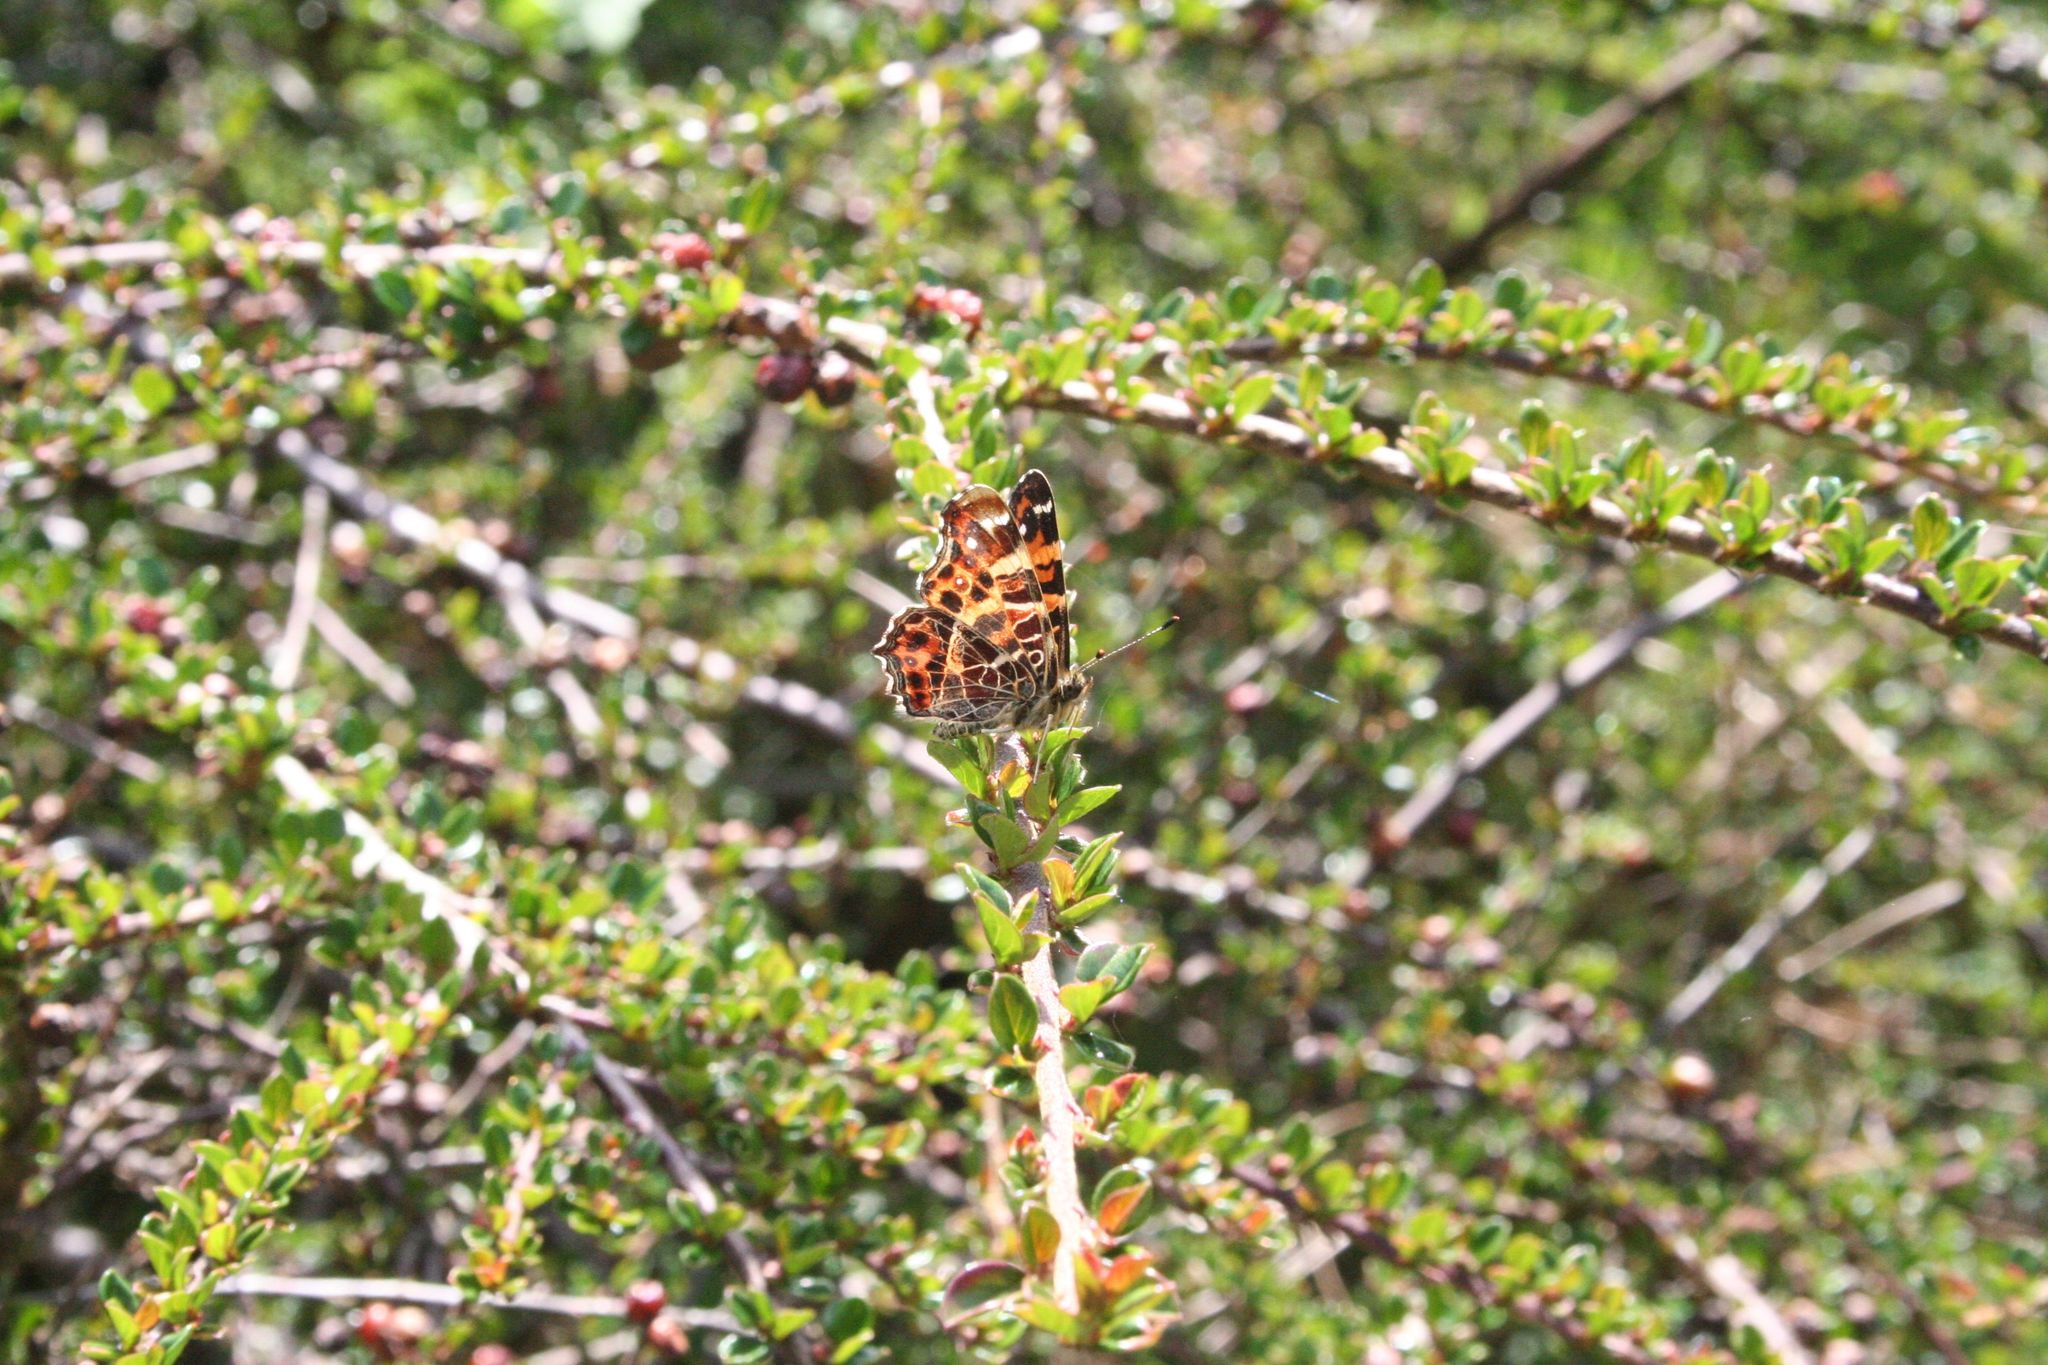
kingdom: Animalia
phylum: Arthropoda
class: Insecta
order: Lepidoptera
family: Nymphalidae
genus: Araschnia
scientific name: Araschnia levana
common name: Map butterfly
